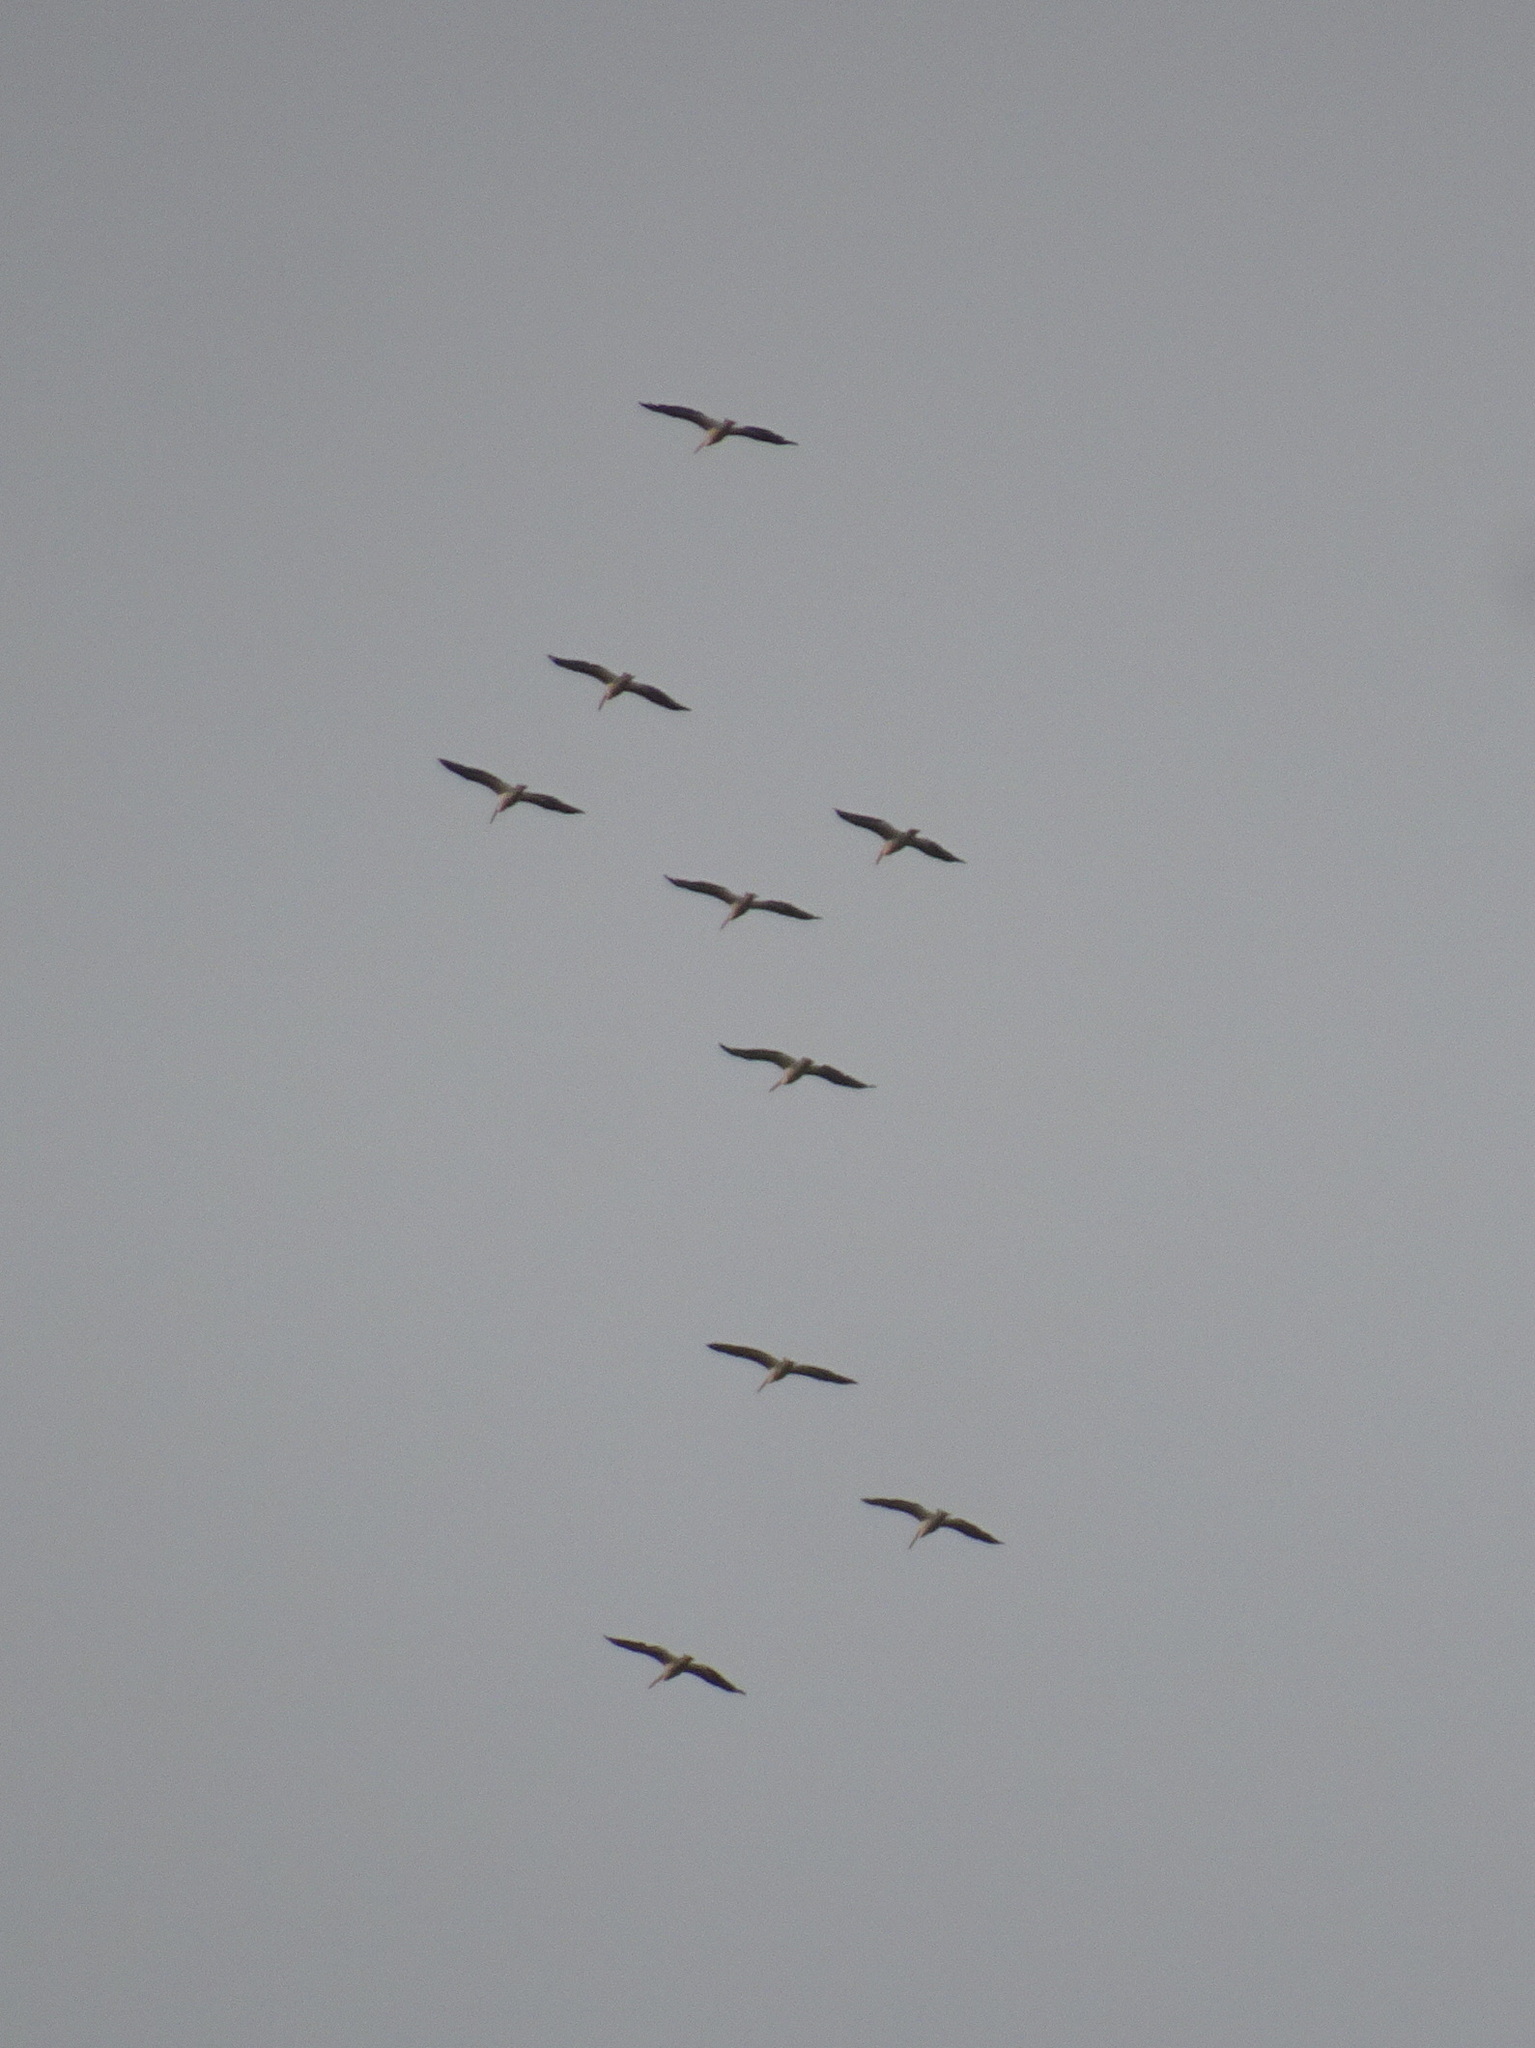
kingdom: Animalia
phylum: Chordata
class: Aves
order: Pelecaniformes
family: Pelecanidae
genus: Pelecanus
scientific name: Pelecanus erythrorhynchos
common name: American white pelican
